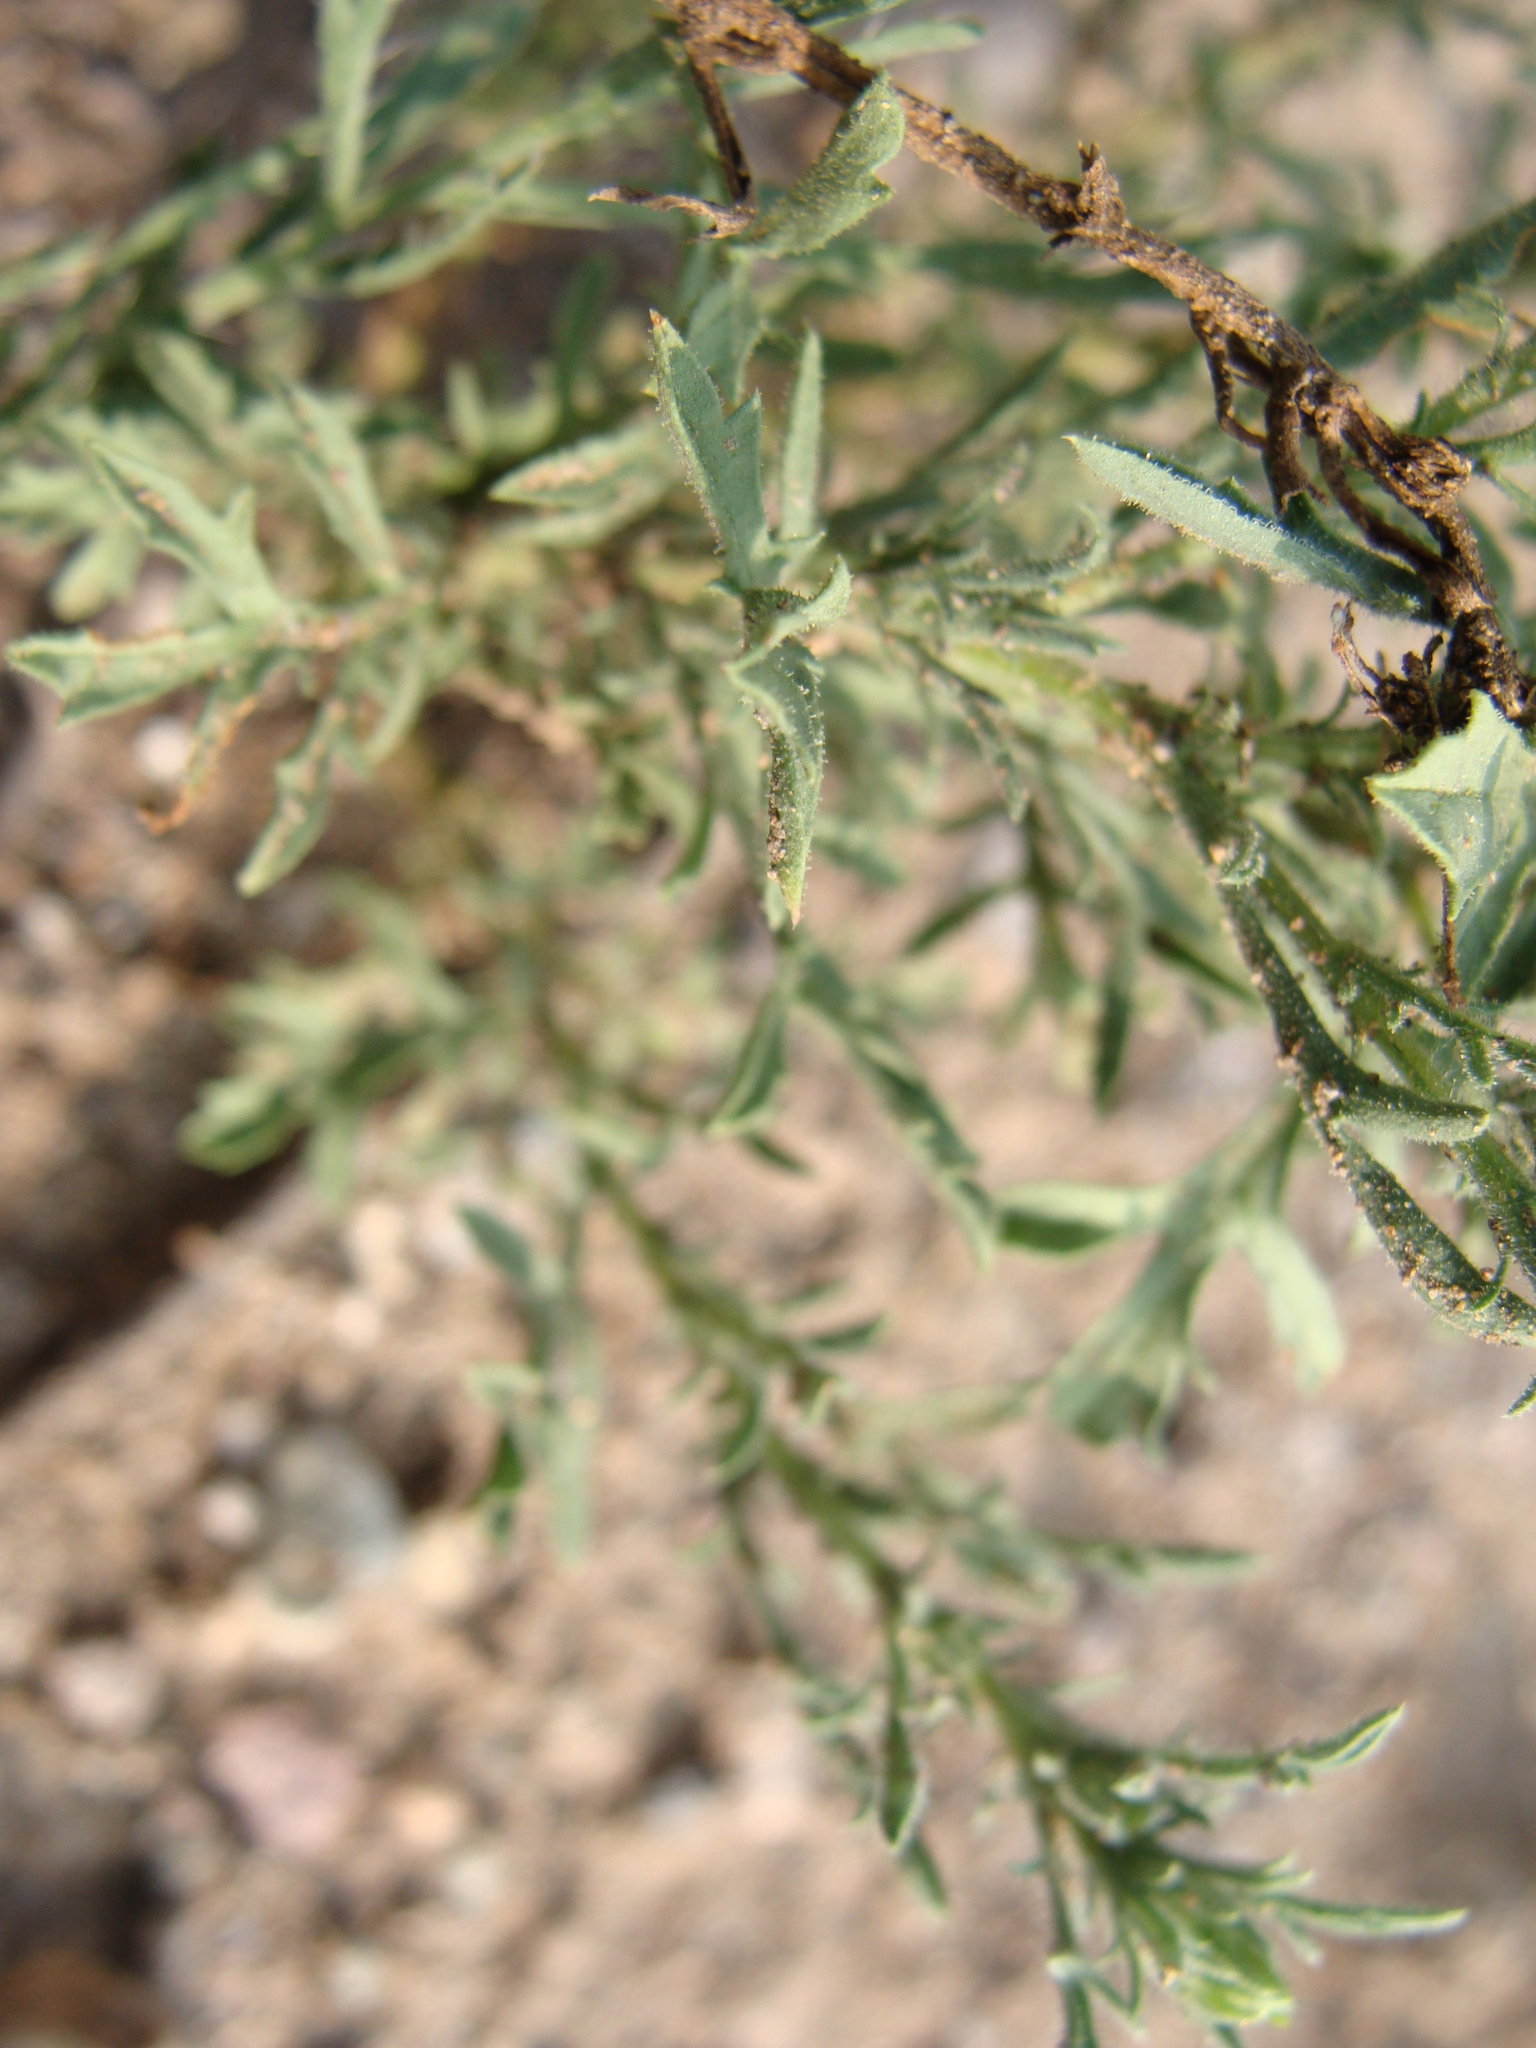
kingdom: Plantae
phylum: Tracheophyta
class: Magnoliopsida
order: Asterales
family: Asteraceae
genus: Machaeranthera
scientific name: Machaeranthera tagetina
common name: Mesa tansy-aster
